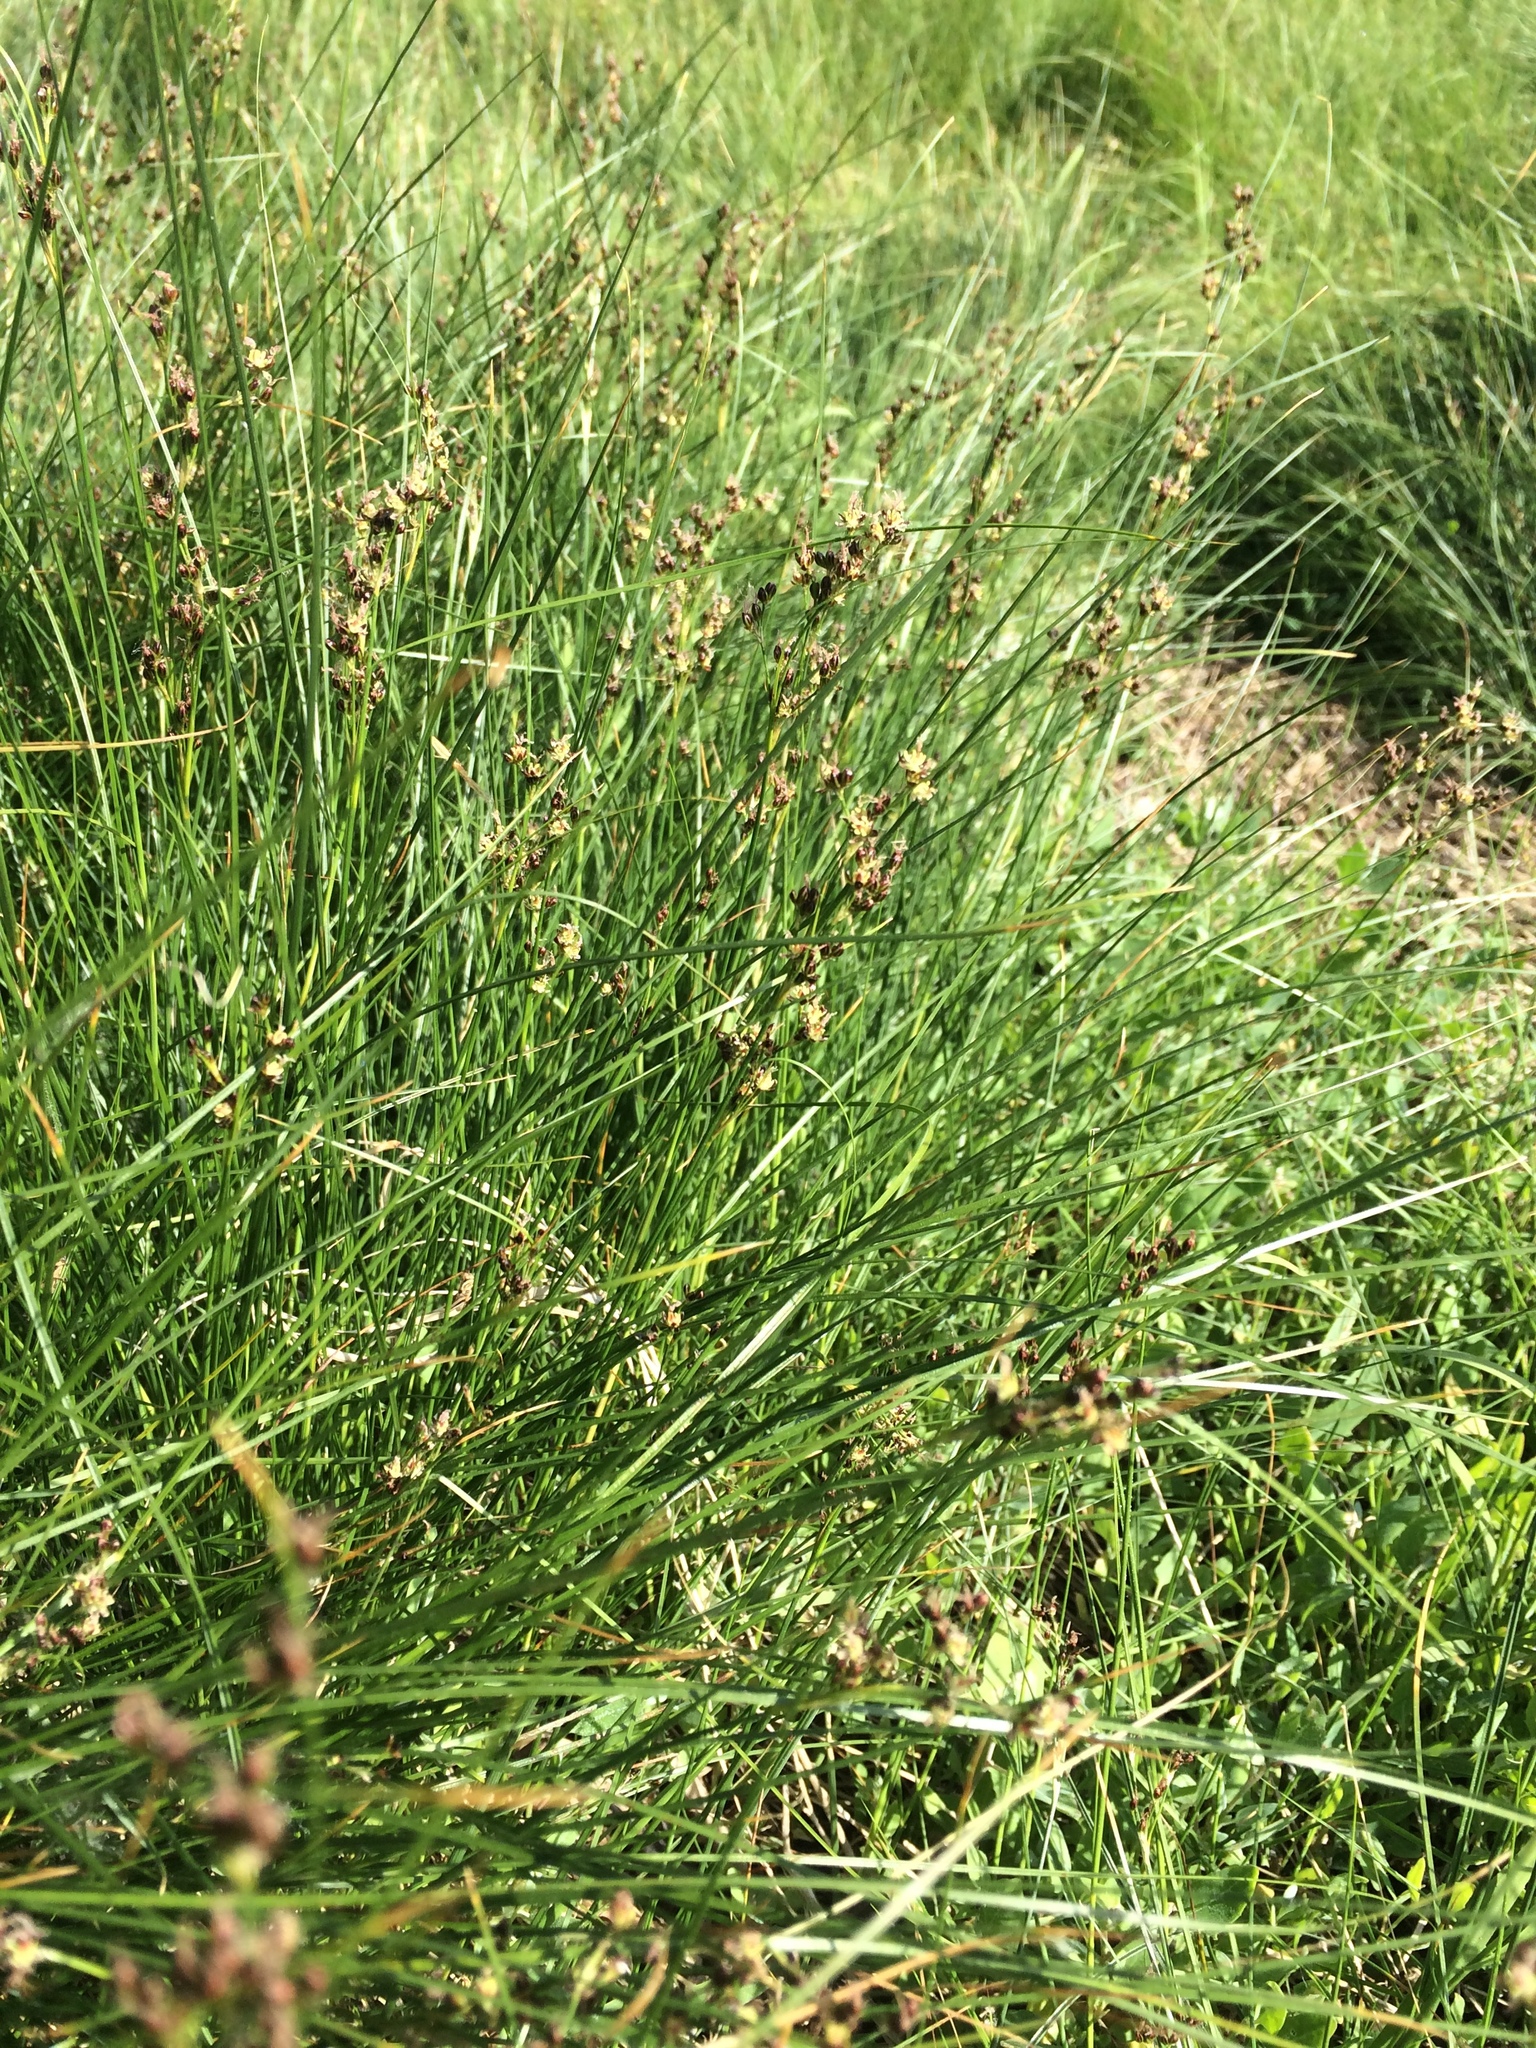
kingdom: Plantae
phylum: Tracheophyta
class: Liliopsida
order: Poales
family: Juncaceae
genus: Juncus
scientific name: Juncus gerardi
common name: Saltmarsh rush
